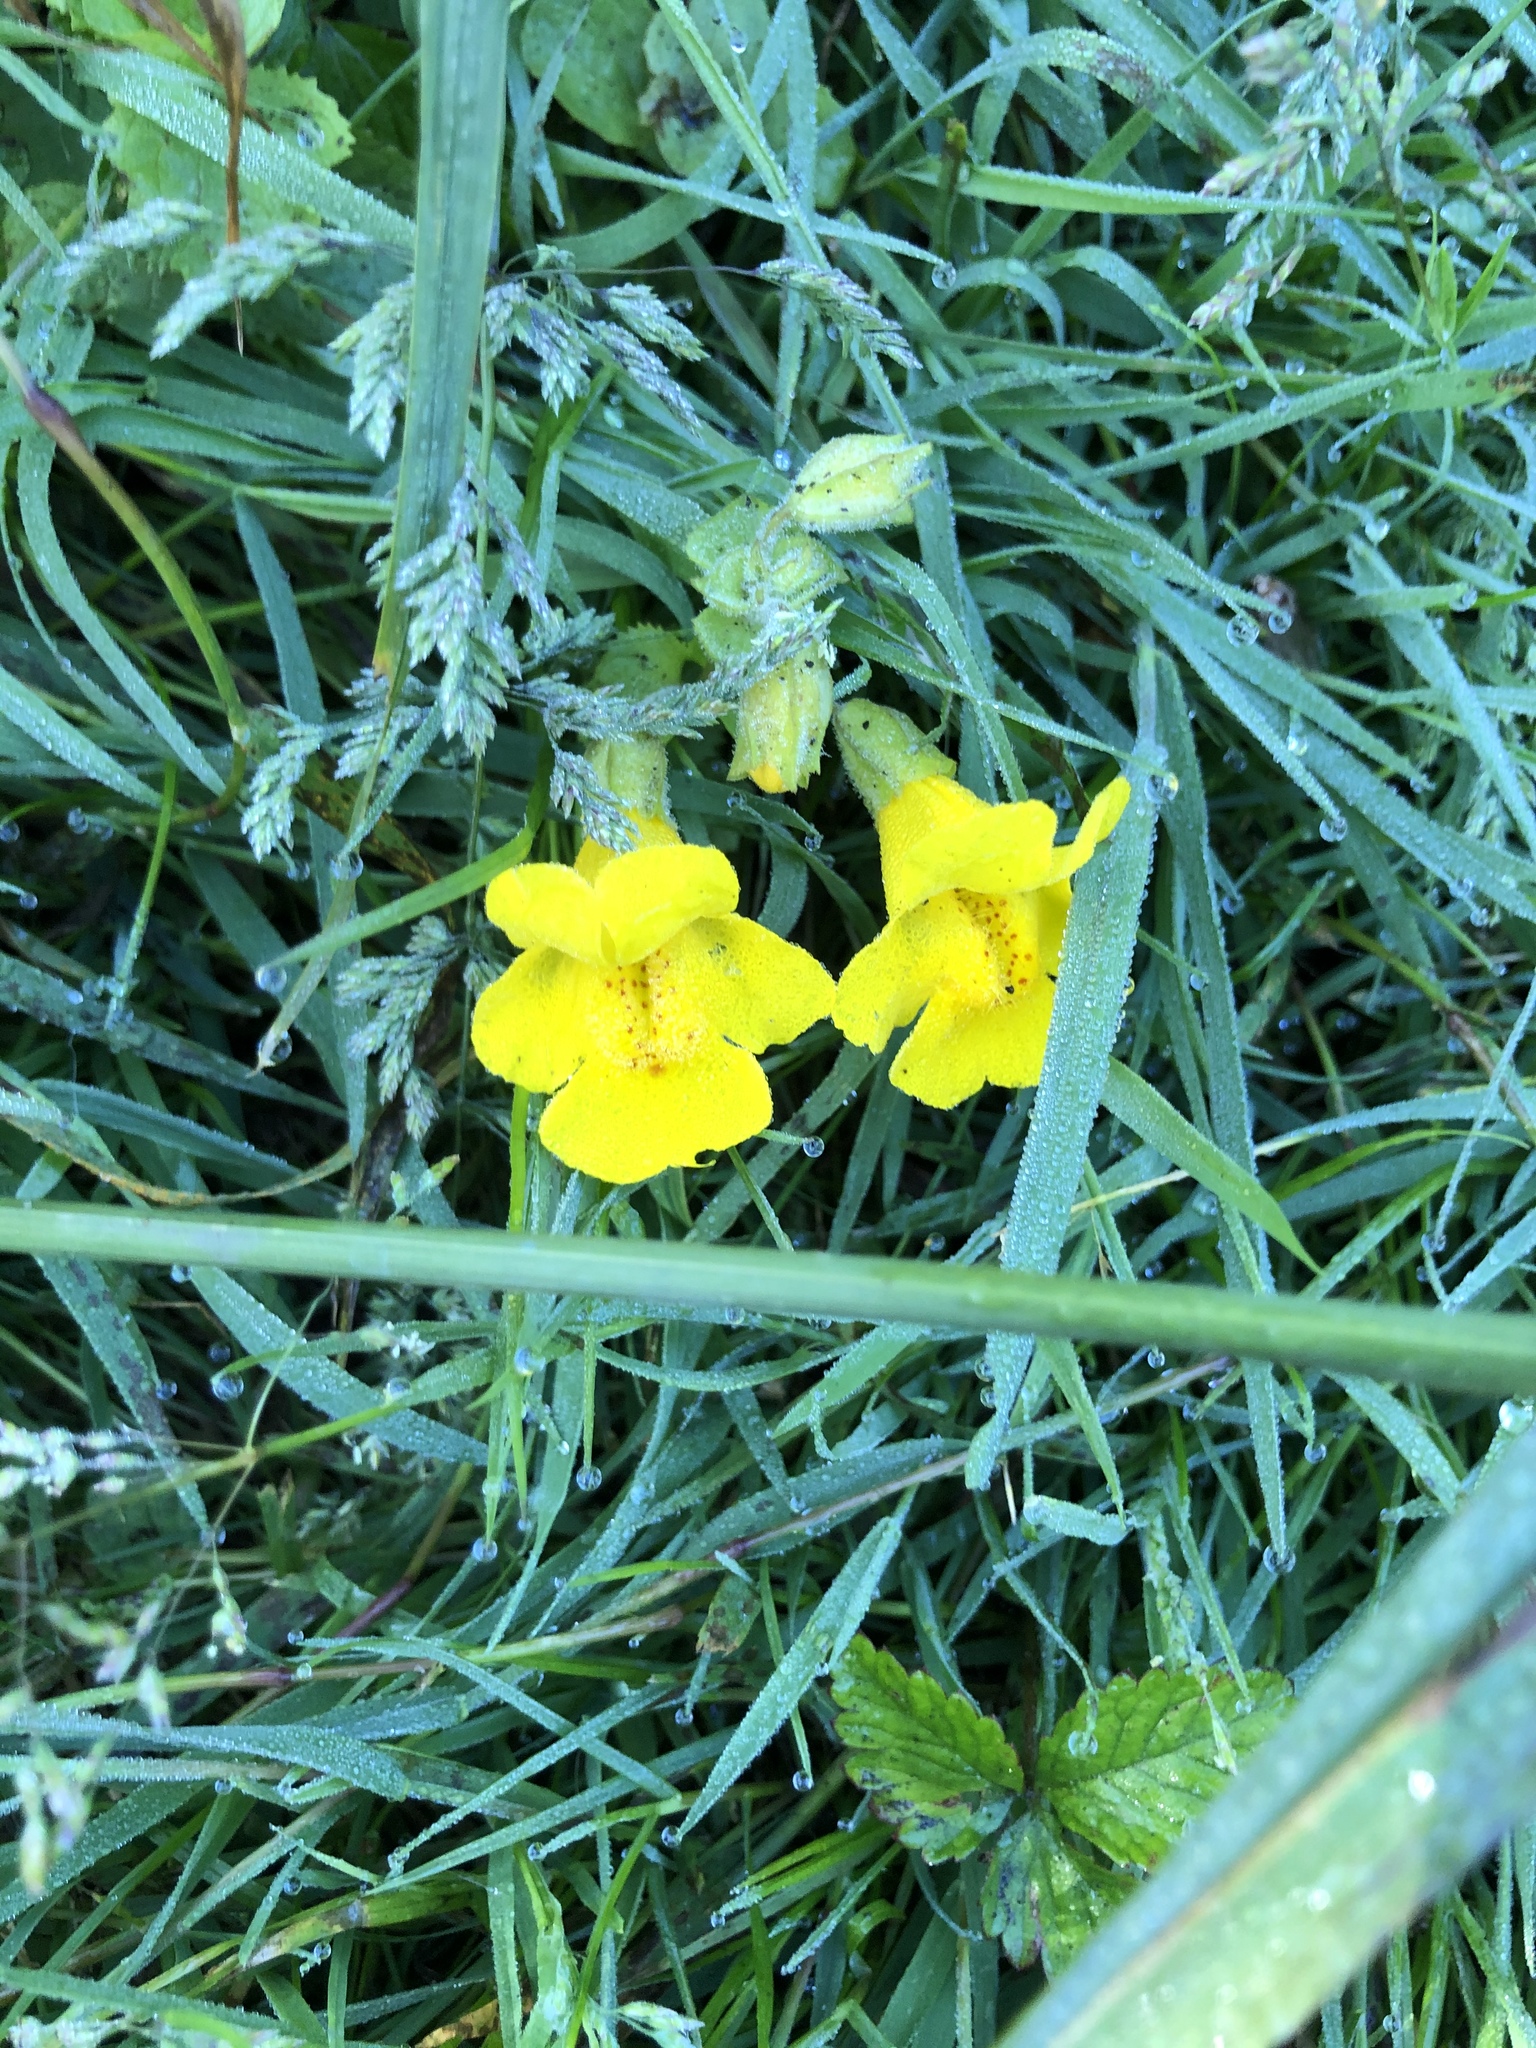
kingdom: Plantae
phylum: Tracheophyta
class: Magnoliopsida
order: Lamiales
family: Phrymaceae
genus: Erythranthe
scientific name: Erythranthe guttata
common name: Monkeyflower
